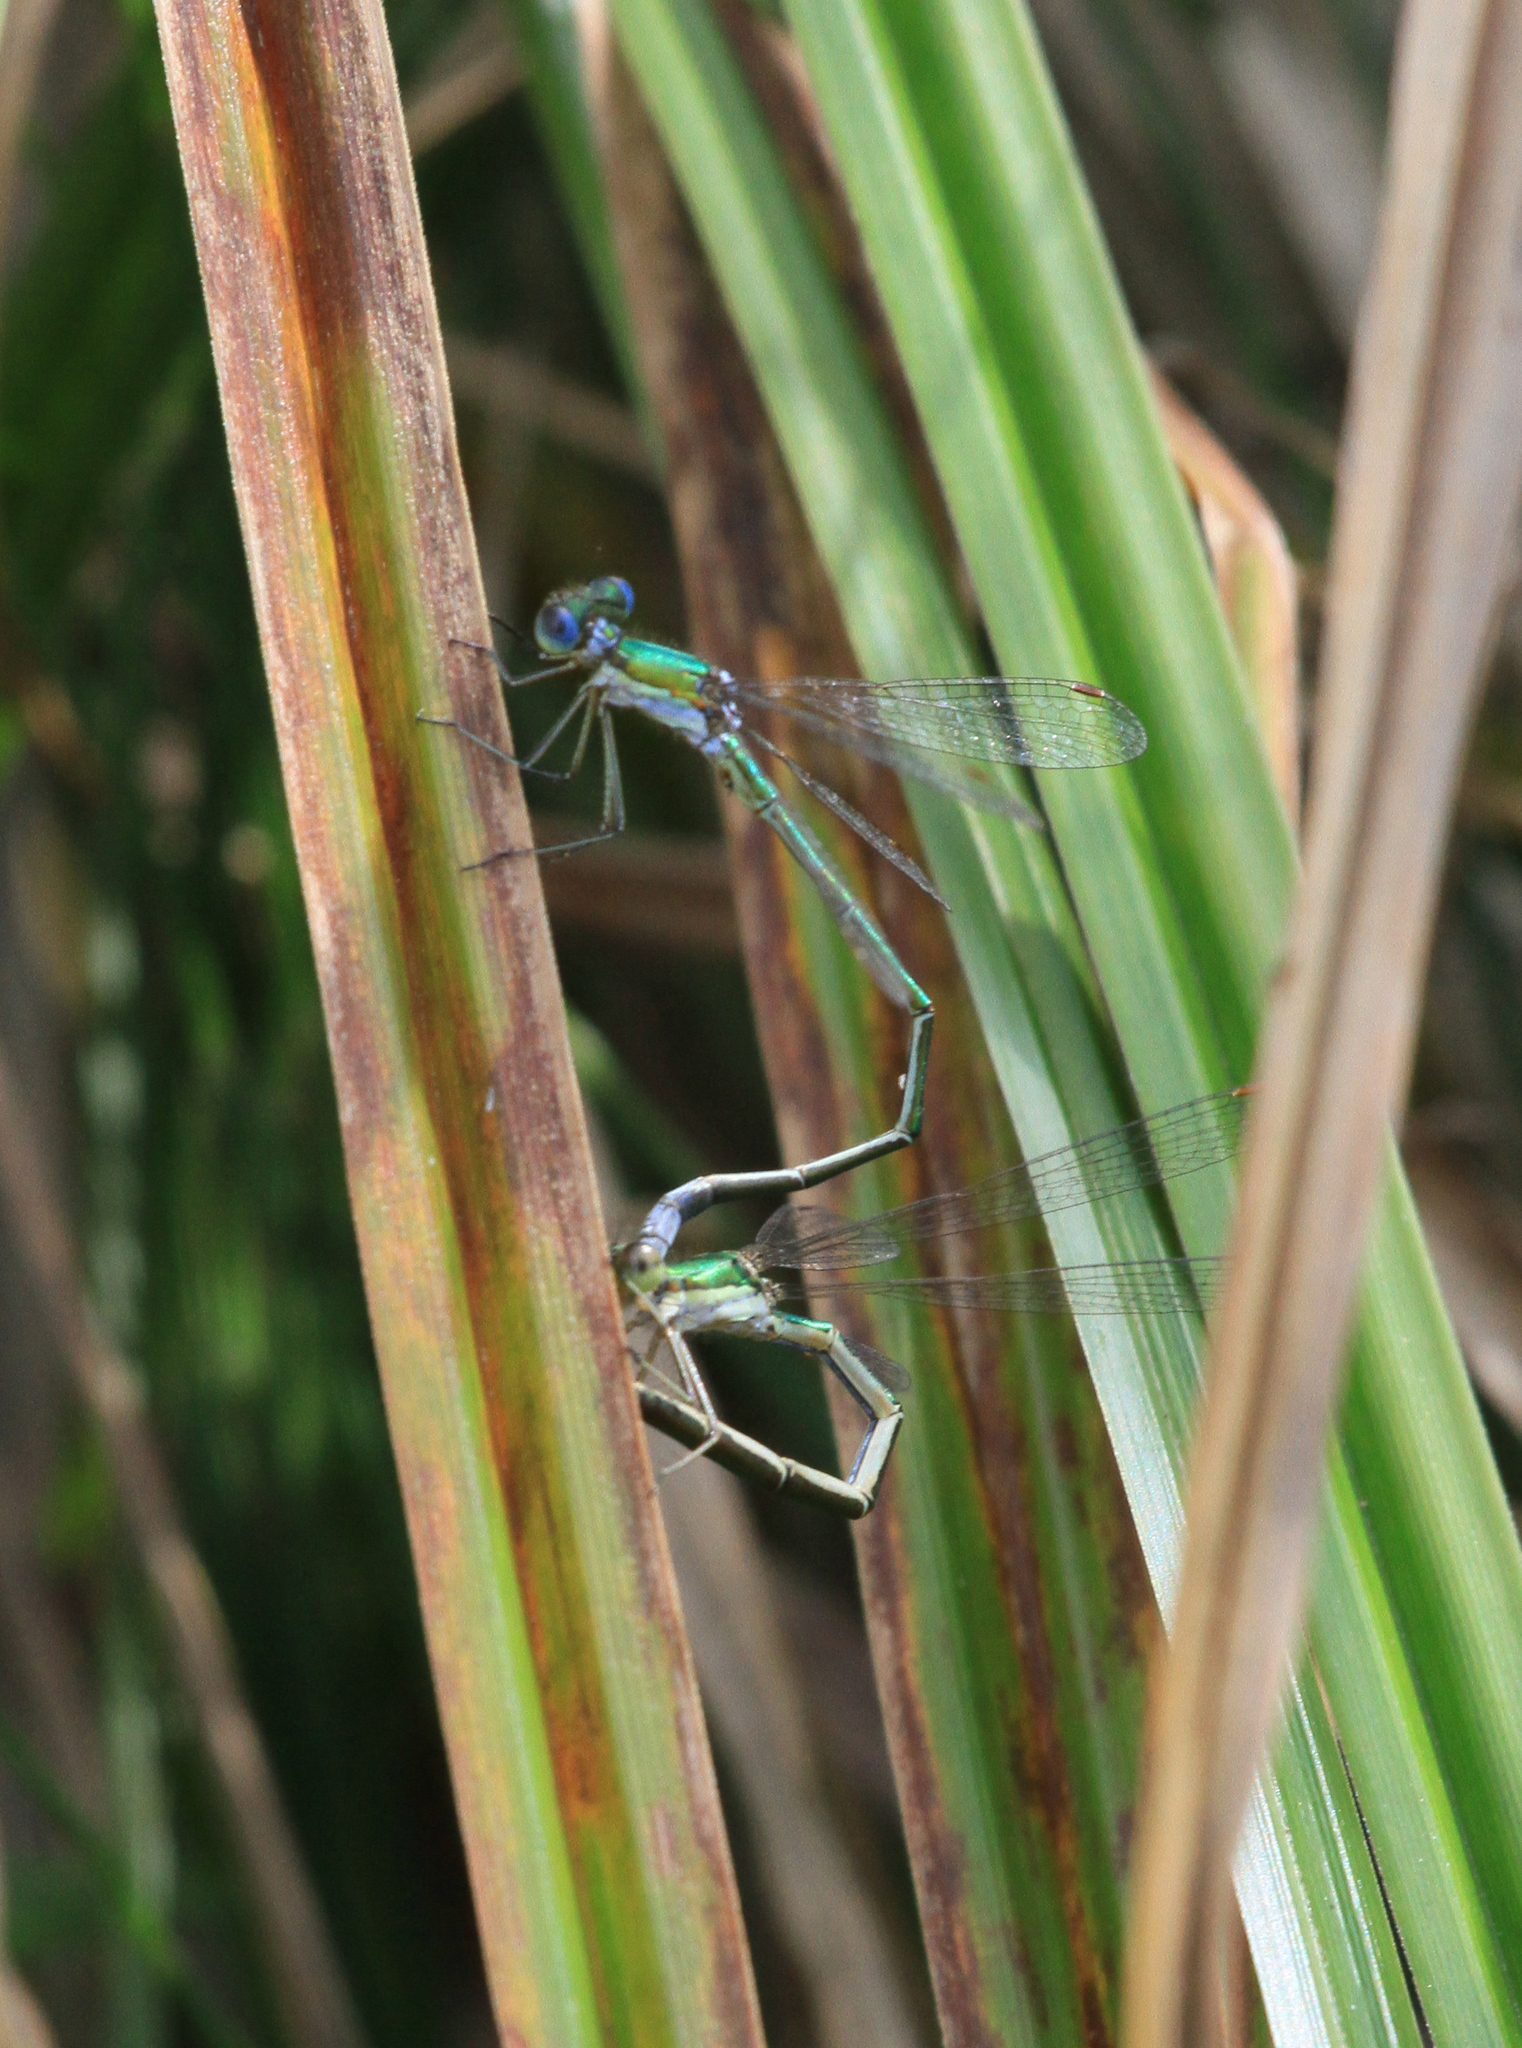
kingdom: Animalia
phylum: Arthropoda
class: Insecta
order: Odonata
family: Lestidae
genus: Lestes
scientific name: Lestes virens
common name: Small emerald spreadwing
